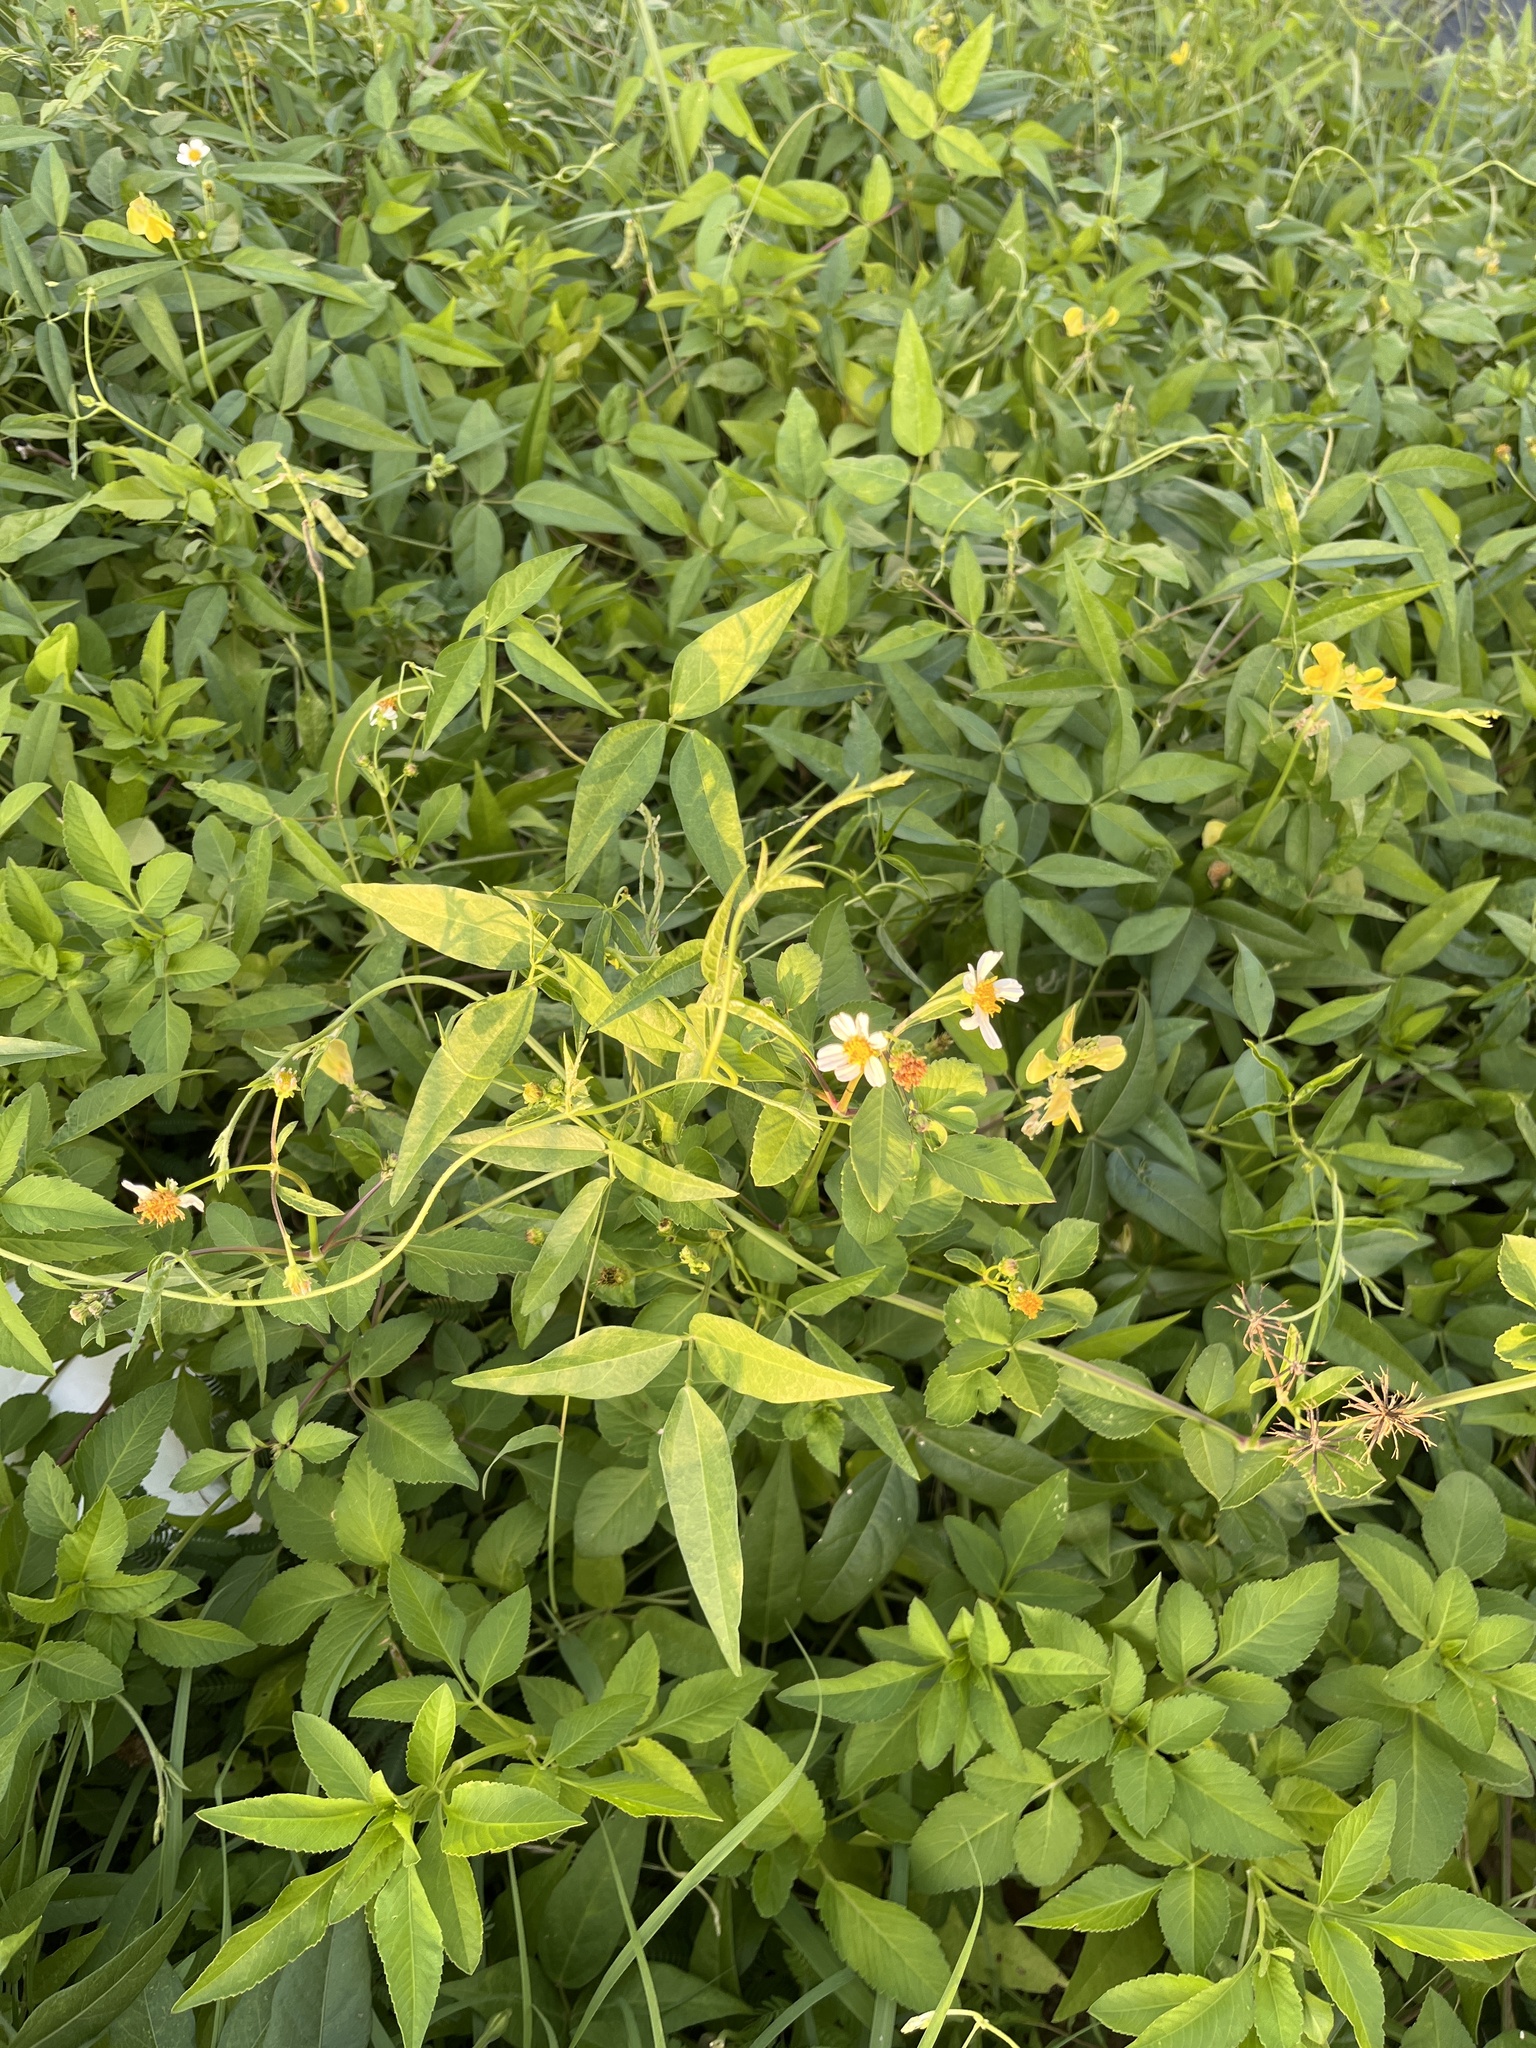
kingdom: Plantae
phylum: Tracheophyta
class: Magnoliopsida
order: Asterales
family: Asteraceae
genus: Bidens
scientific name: Bidens alba
